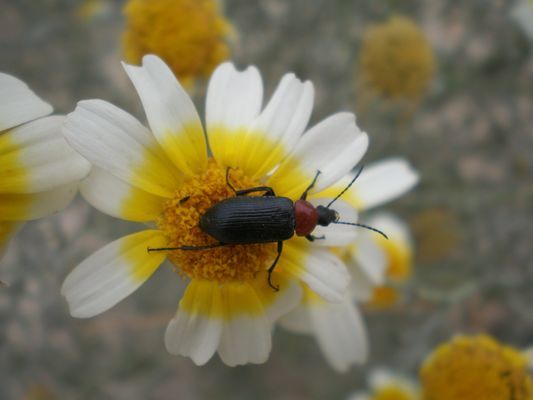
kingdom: Animalia
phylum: Arthropoda
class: Insecta
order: Coleoptera
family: Tenebrionidae
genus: Heliotaurus
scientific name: Heliotaurus ruficollis
